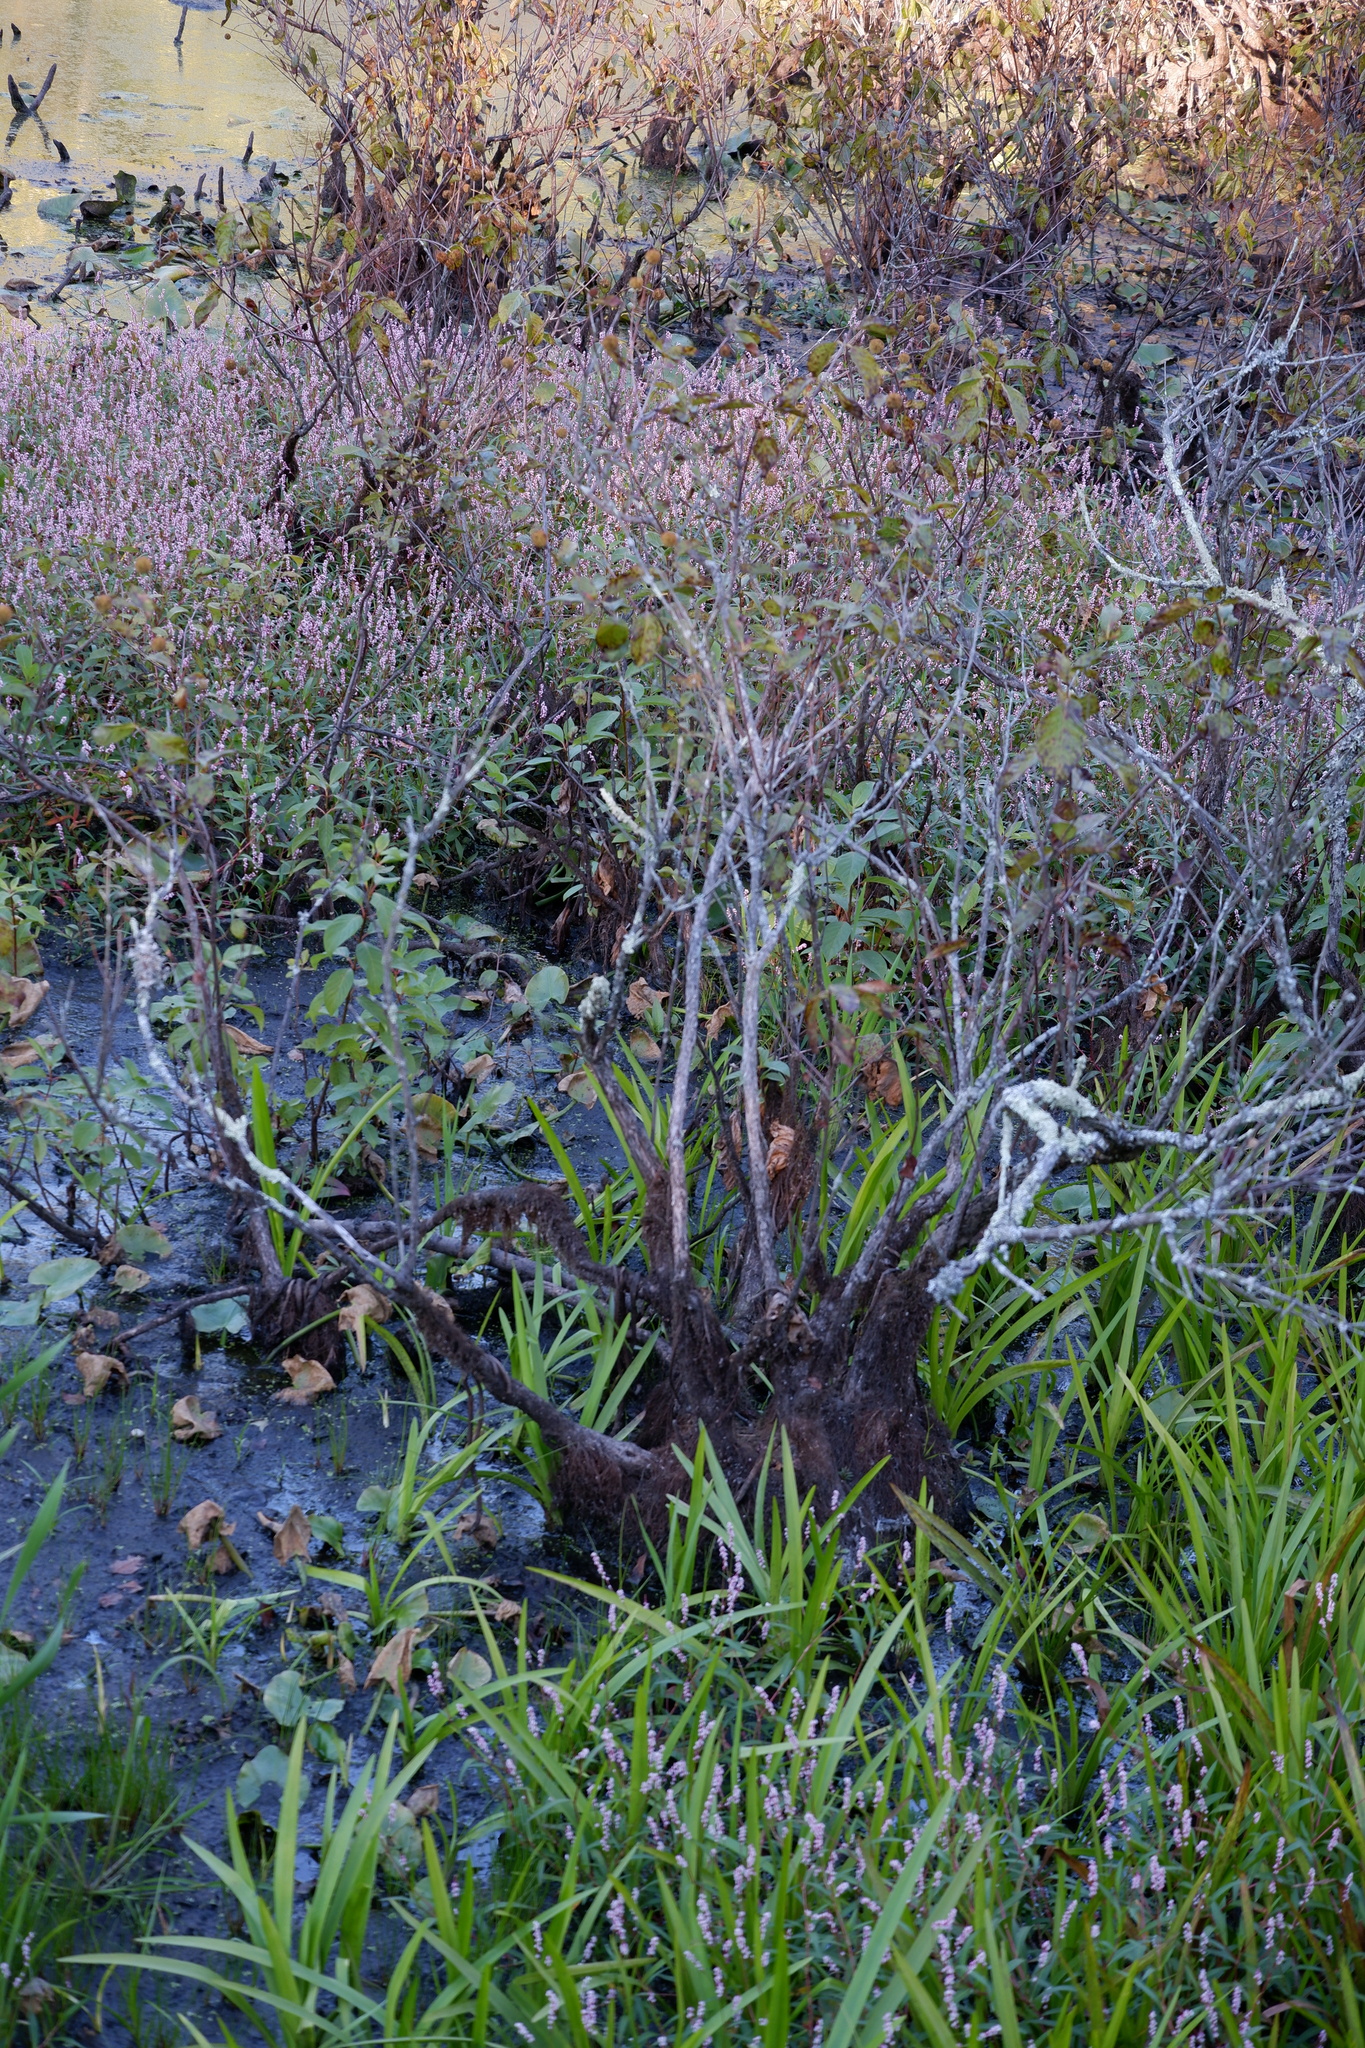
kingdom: Plantae
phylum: Tracheophyta
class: Magnoliopsida
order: Gentianales
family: Rubiaceae
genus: Cephalanthus
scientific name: Cephalanthus occidentalis
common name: Button-willow
